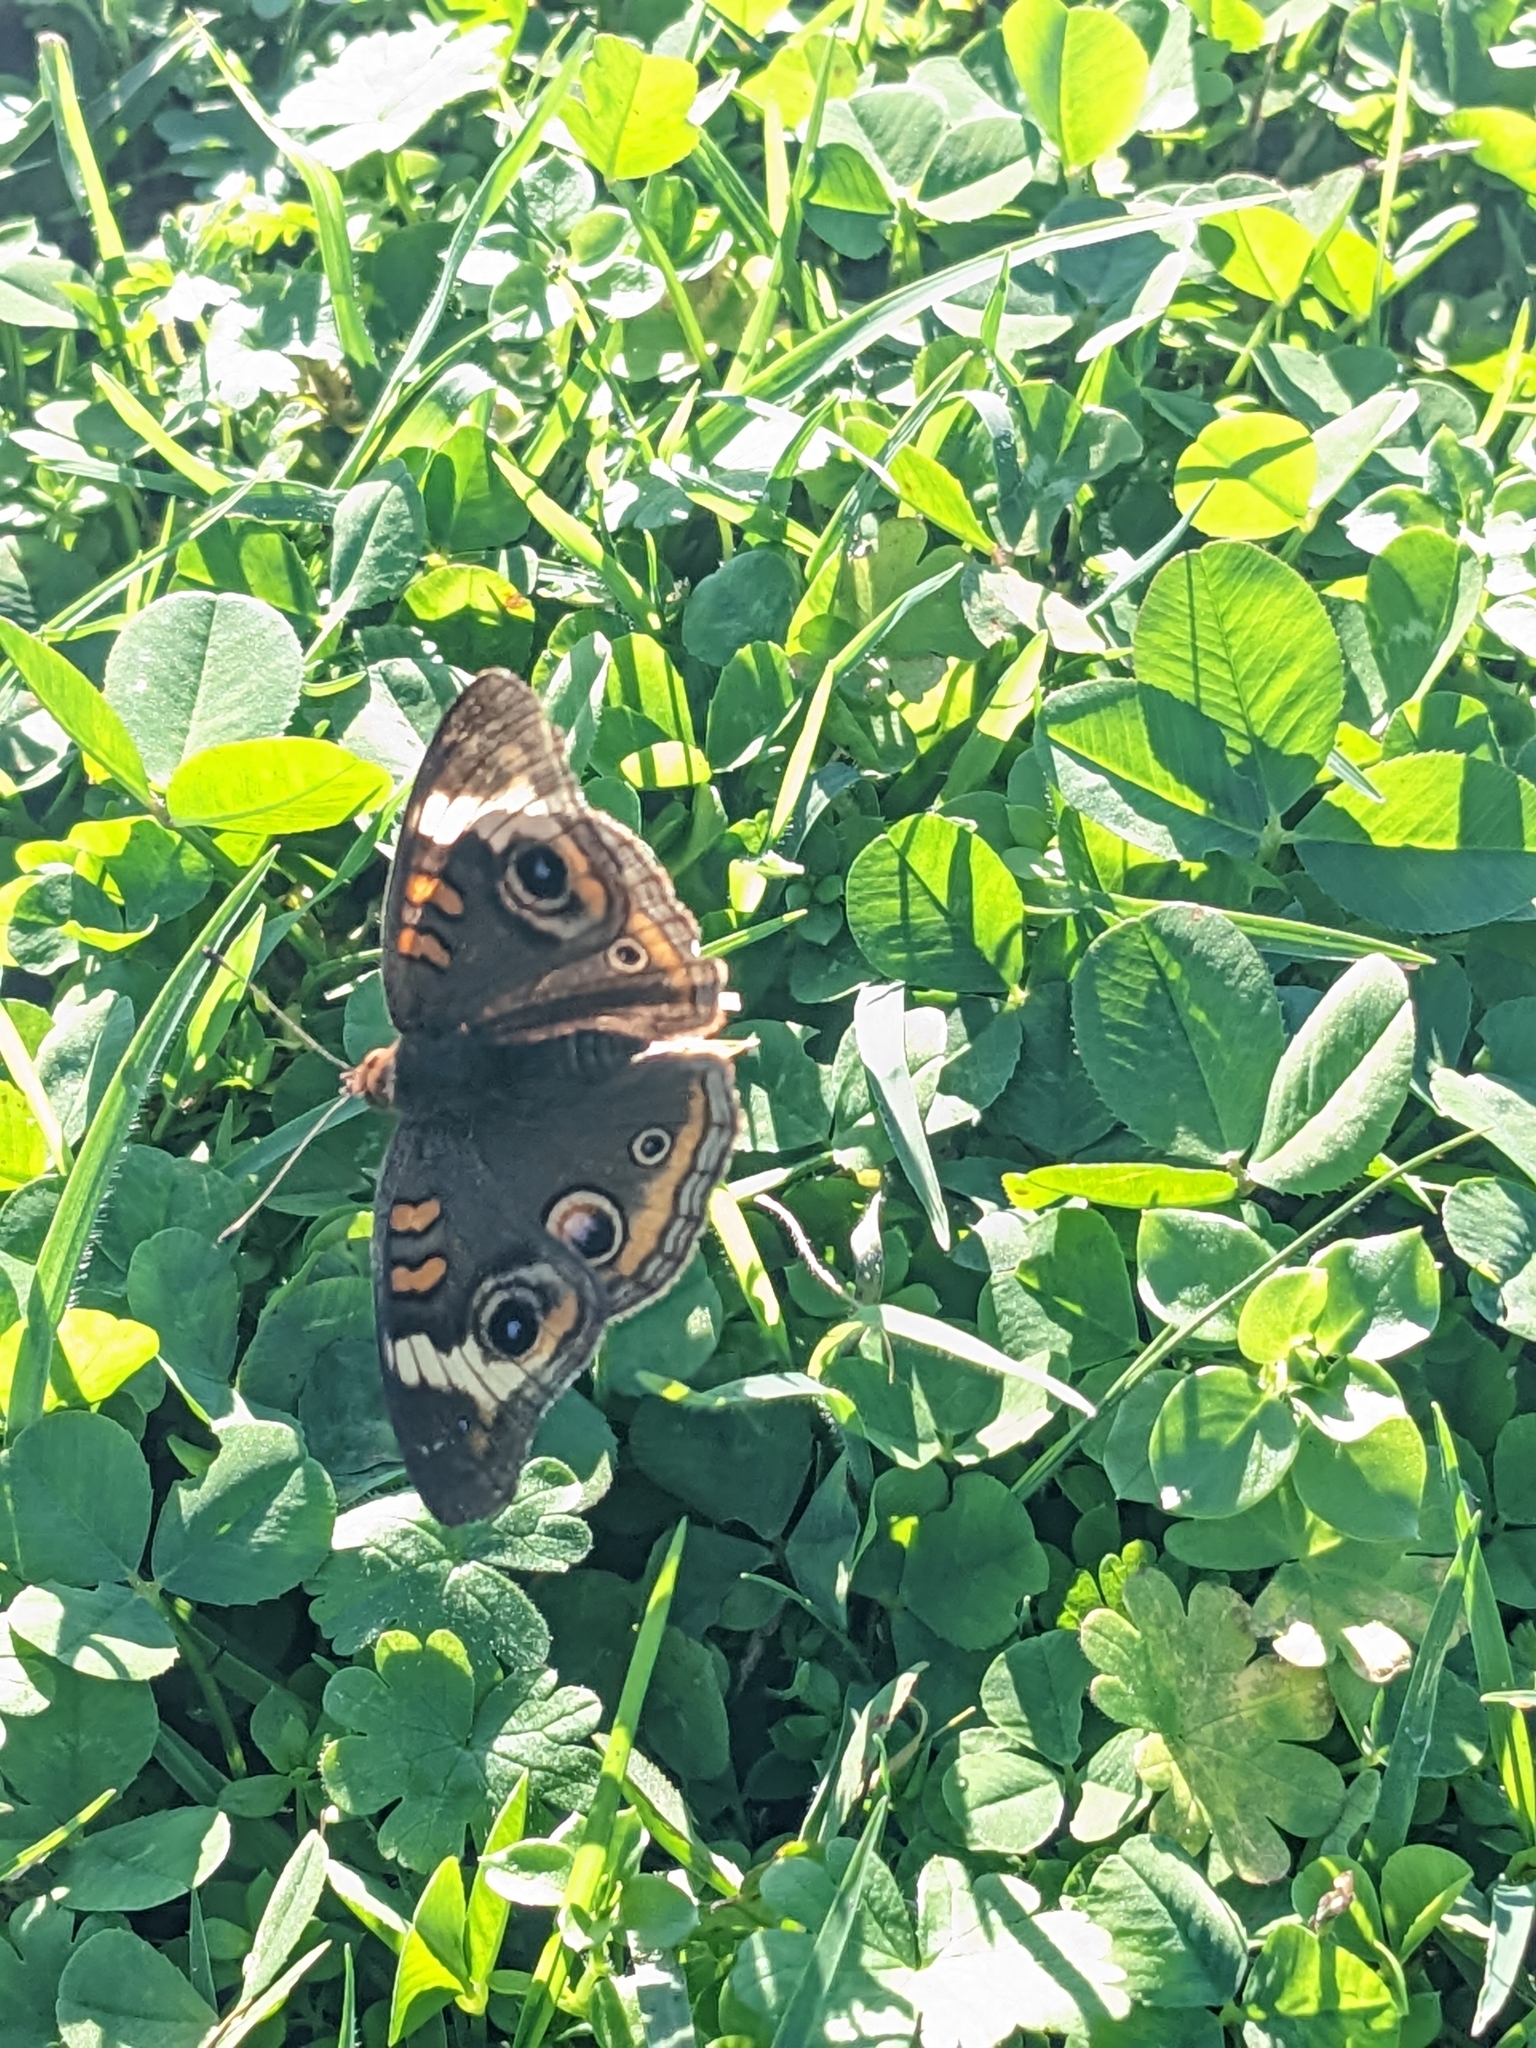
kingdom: Animalia
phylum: Arthropoda
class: Insecta
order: Lepidoptera
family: Nymphalidae
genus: Junonia
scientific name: Junonia coenia
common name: Common buckeye
